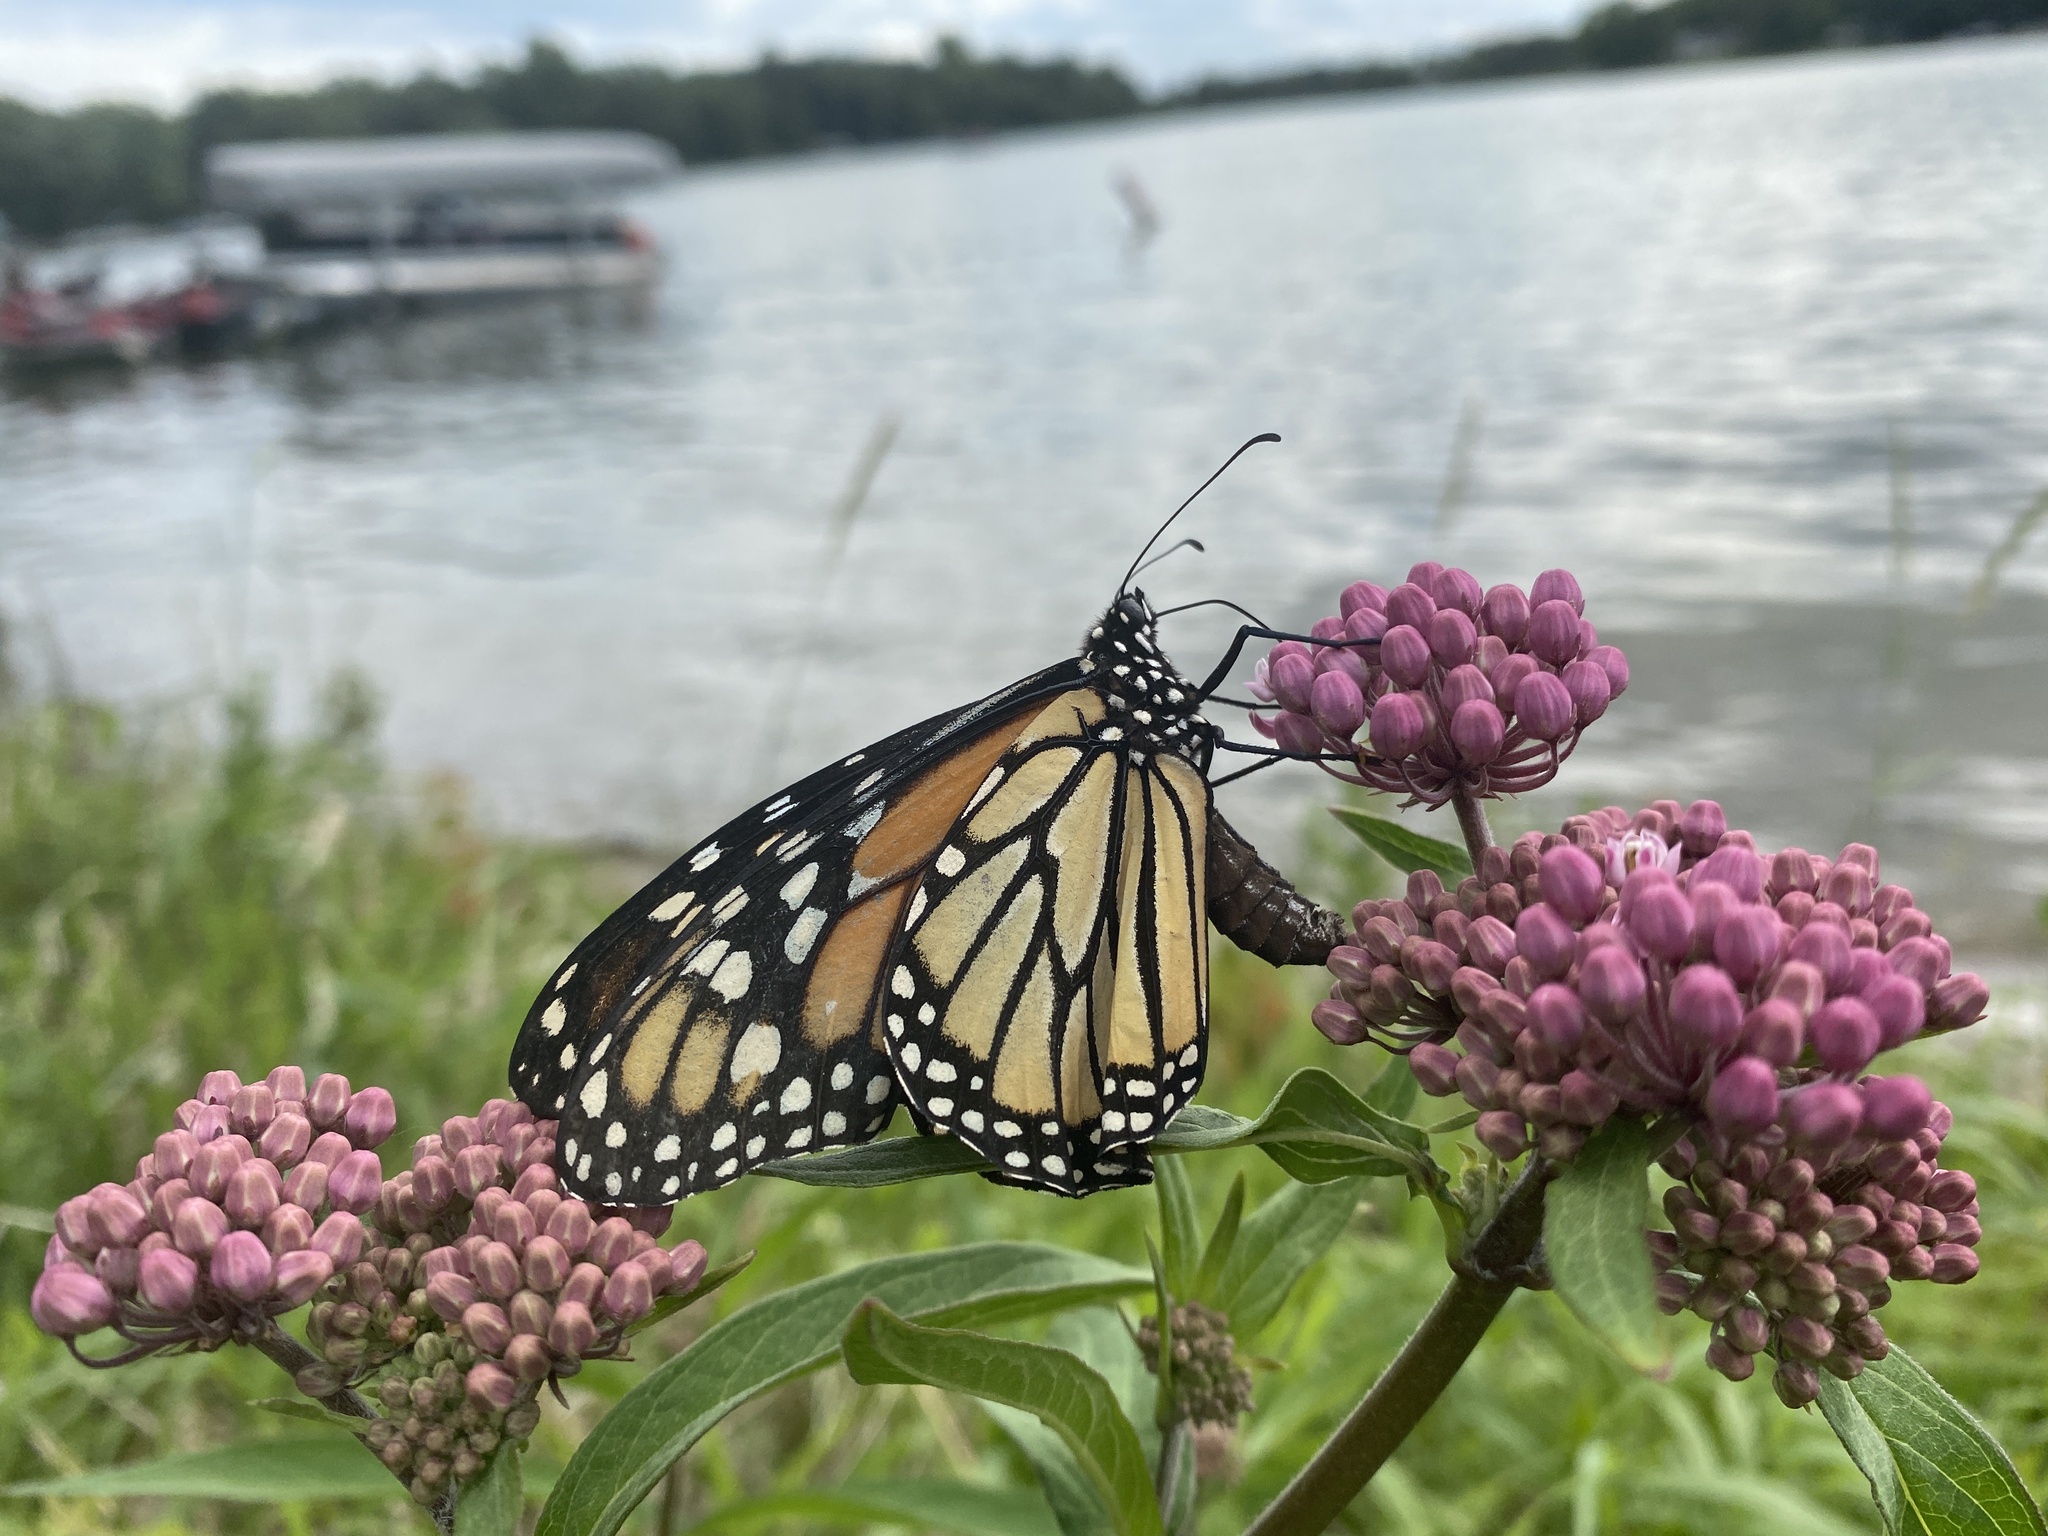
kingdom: Animalia
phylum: Arthropoda
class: Insecta
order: Lepidoptera
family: Nymphalidae
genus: Danaus
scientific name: Danaus plexippus
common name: Monarch
